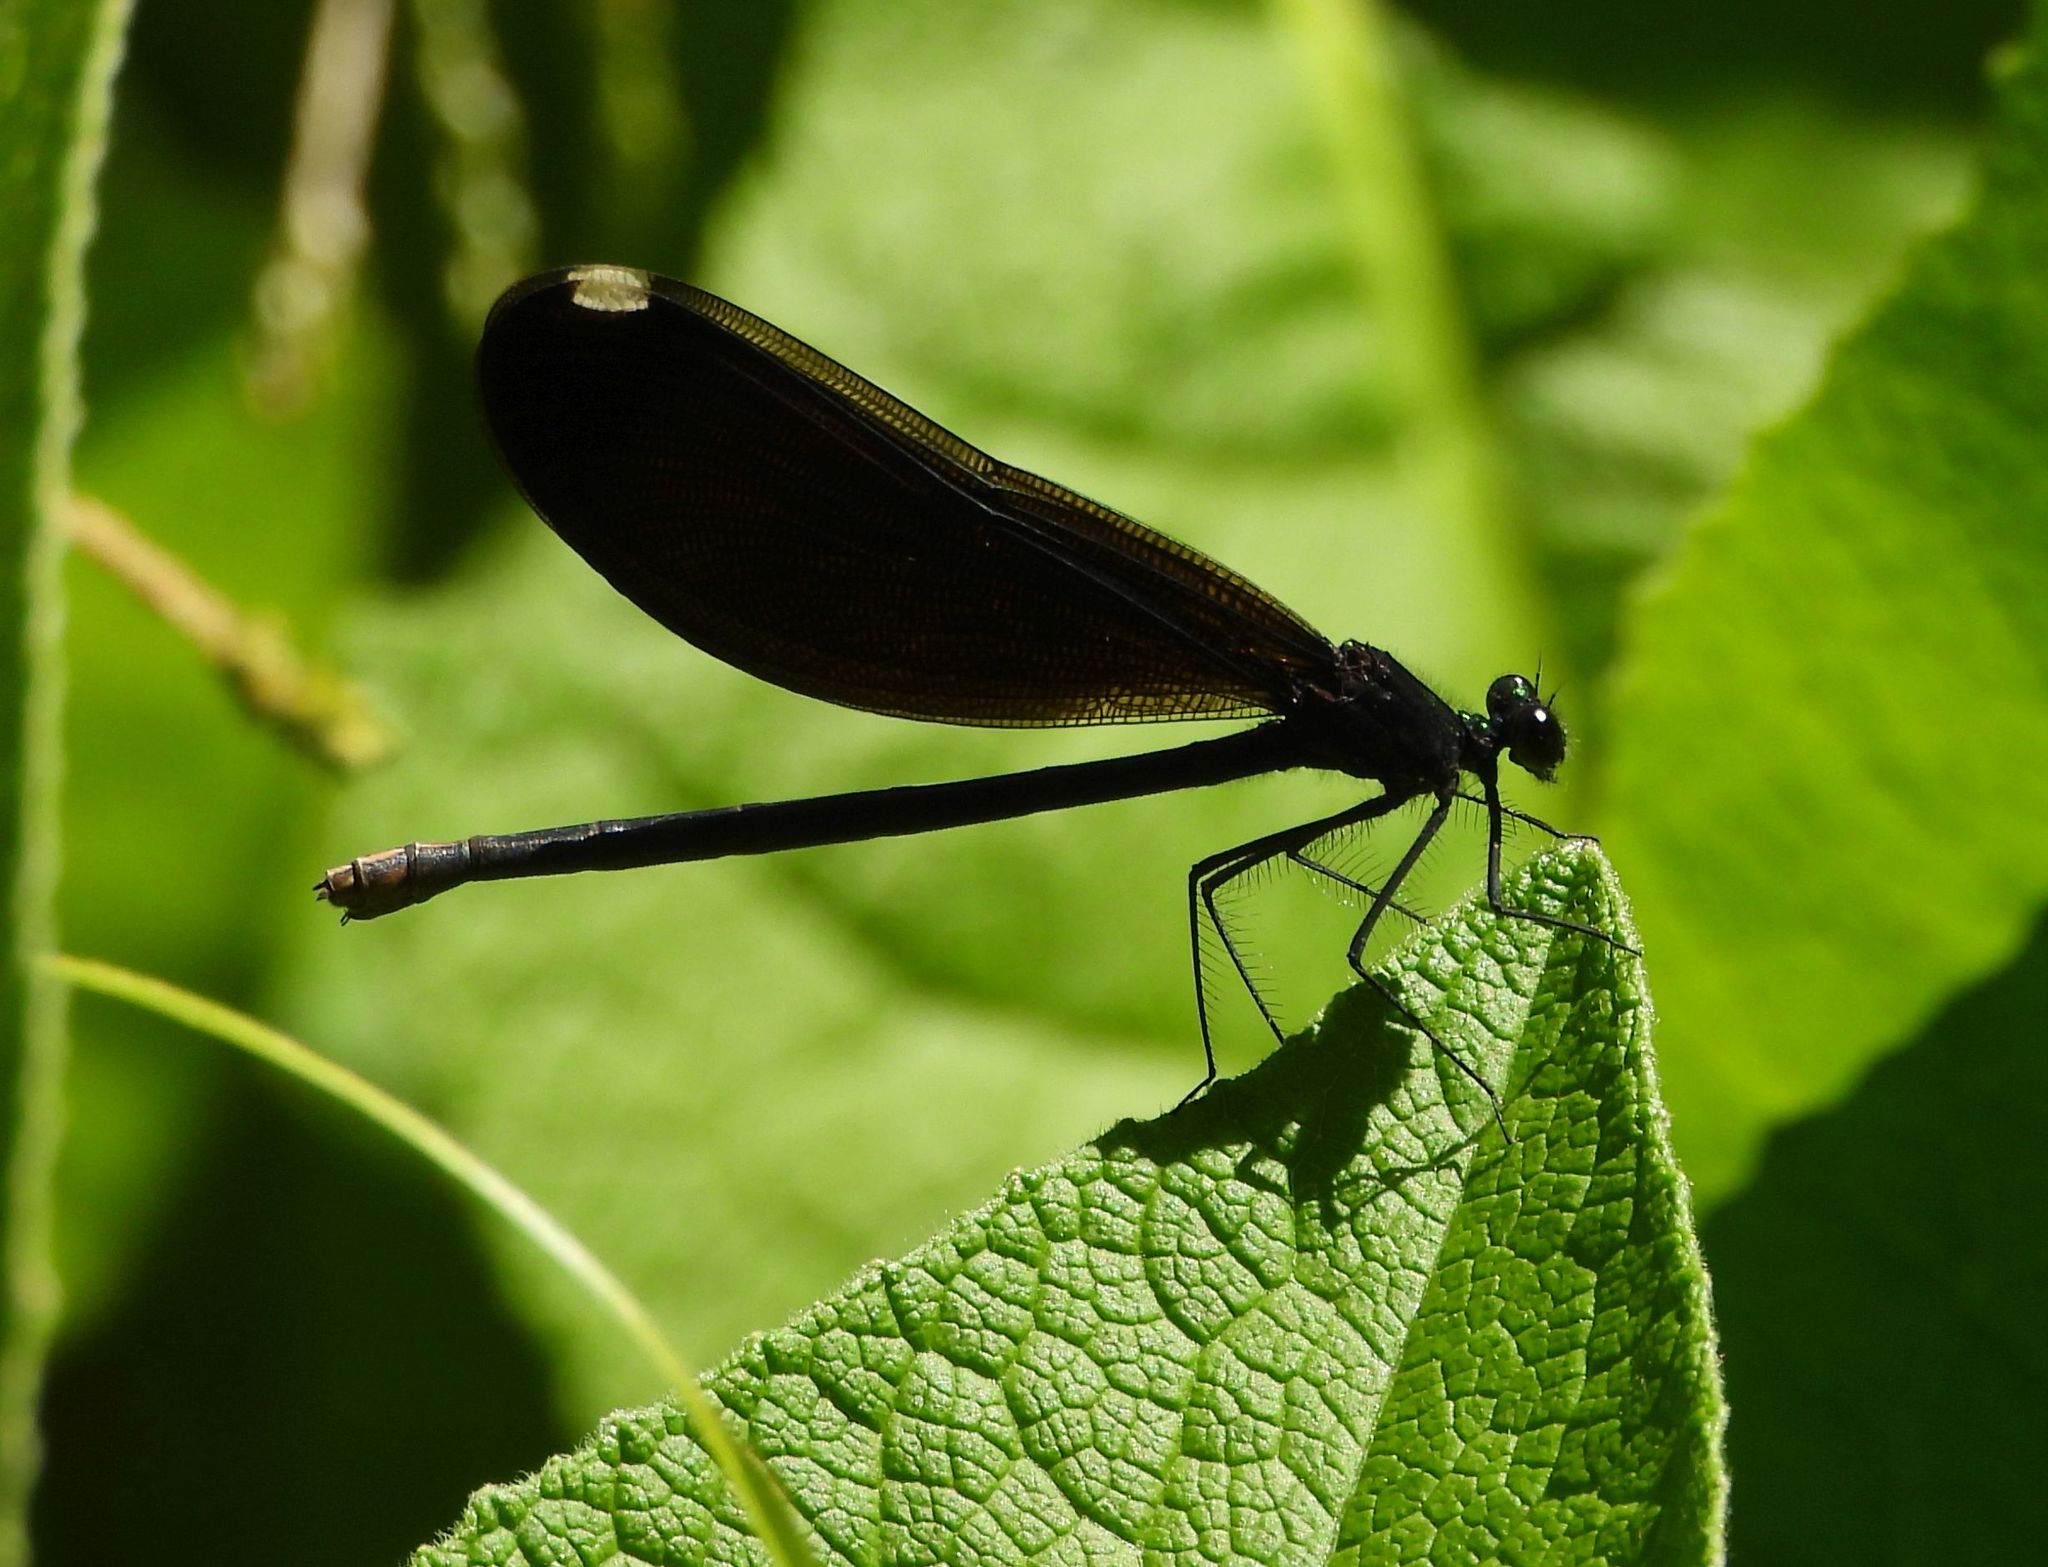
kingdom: Animalia
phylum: Arthropoda
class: Insecta
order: Odonata
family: Calopterygidae
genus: Calopteryx
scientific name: Calopteryx maculata
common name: Ebony jewelwing
